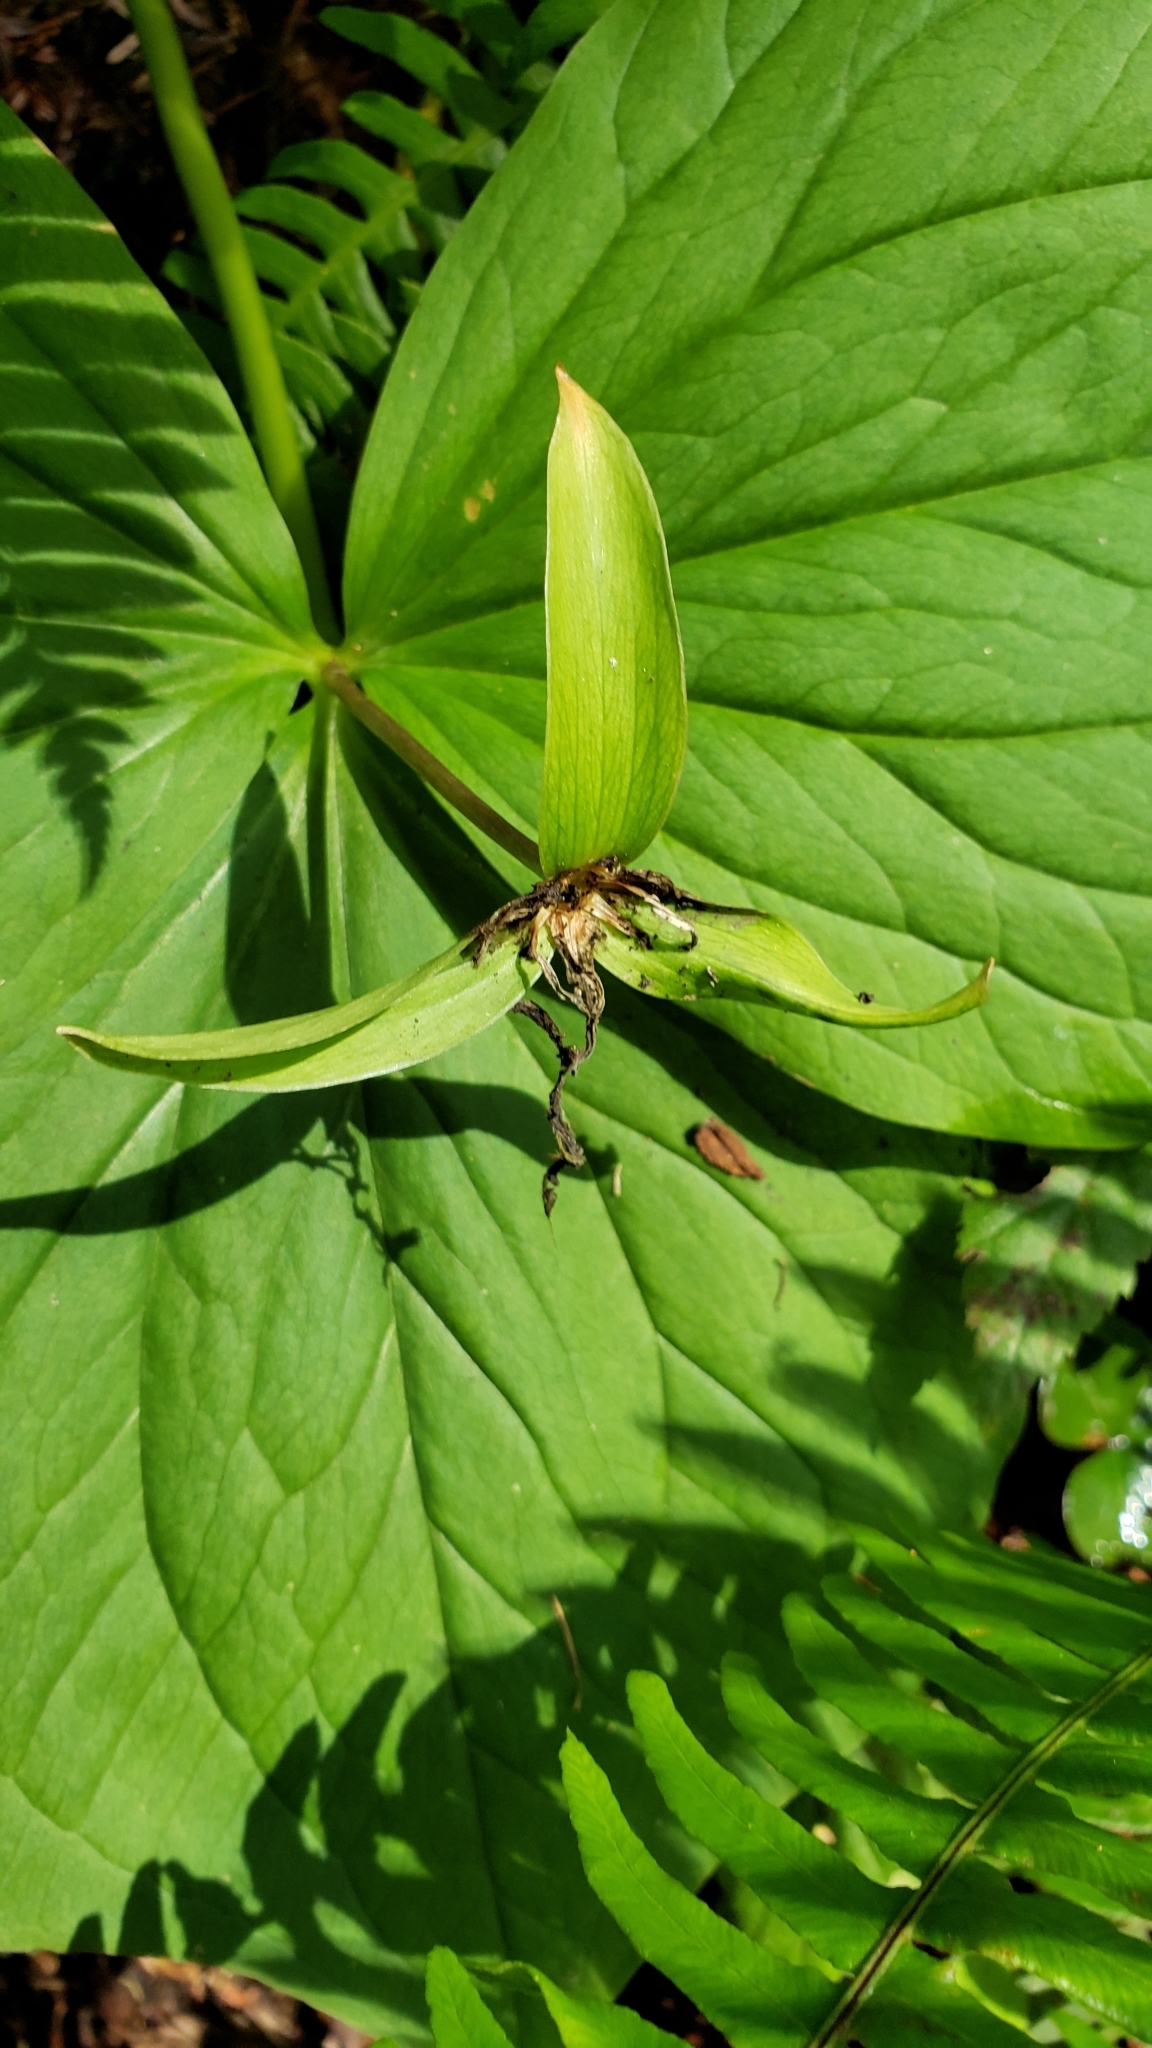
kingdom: Plantae
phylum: Tracheophyta
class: Liliopsida
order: Liliales
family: Melanthiaceae
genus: Trillium
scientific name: Trillium ovatum
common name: Pacific trillium
